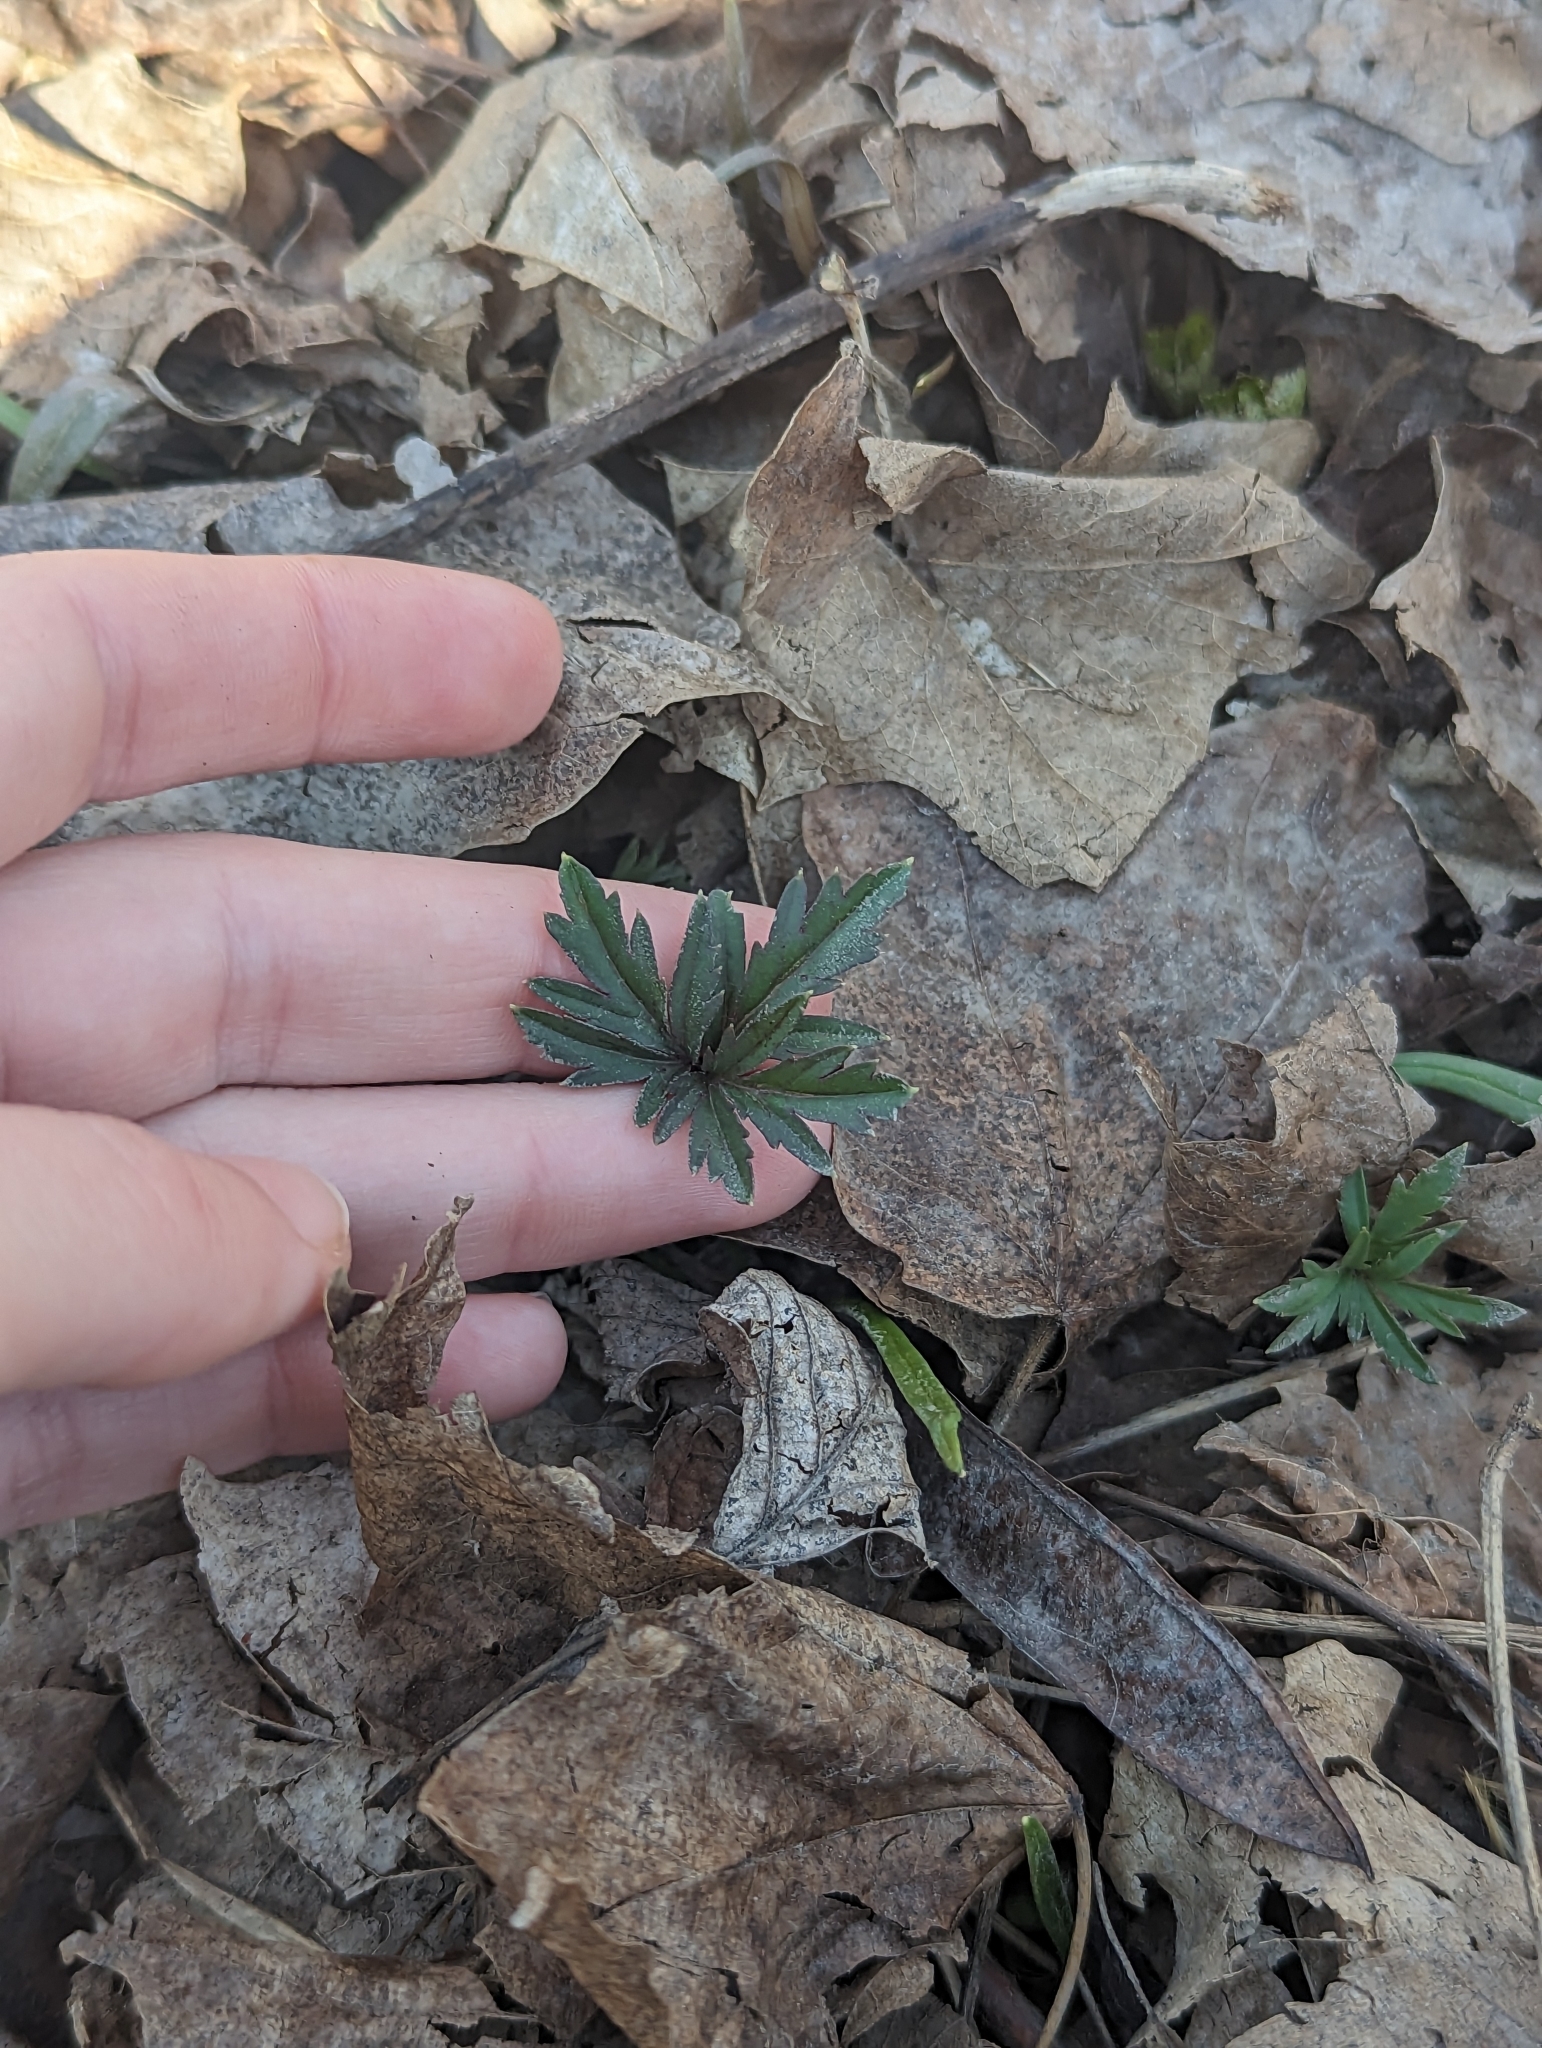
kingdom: Plantae
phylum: Tracheophyta
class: Magnoliopsida
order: Brassicales
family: Brassicaceae
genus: Cardamine
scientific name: Cardamine concatenata
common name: Cut-leaf toothcup
